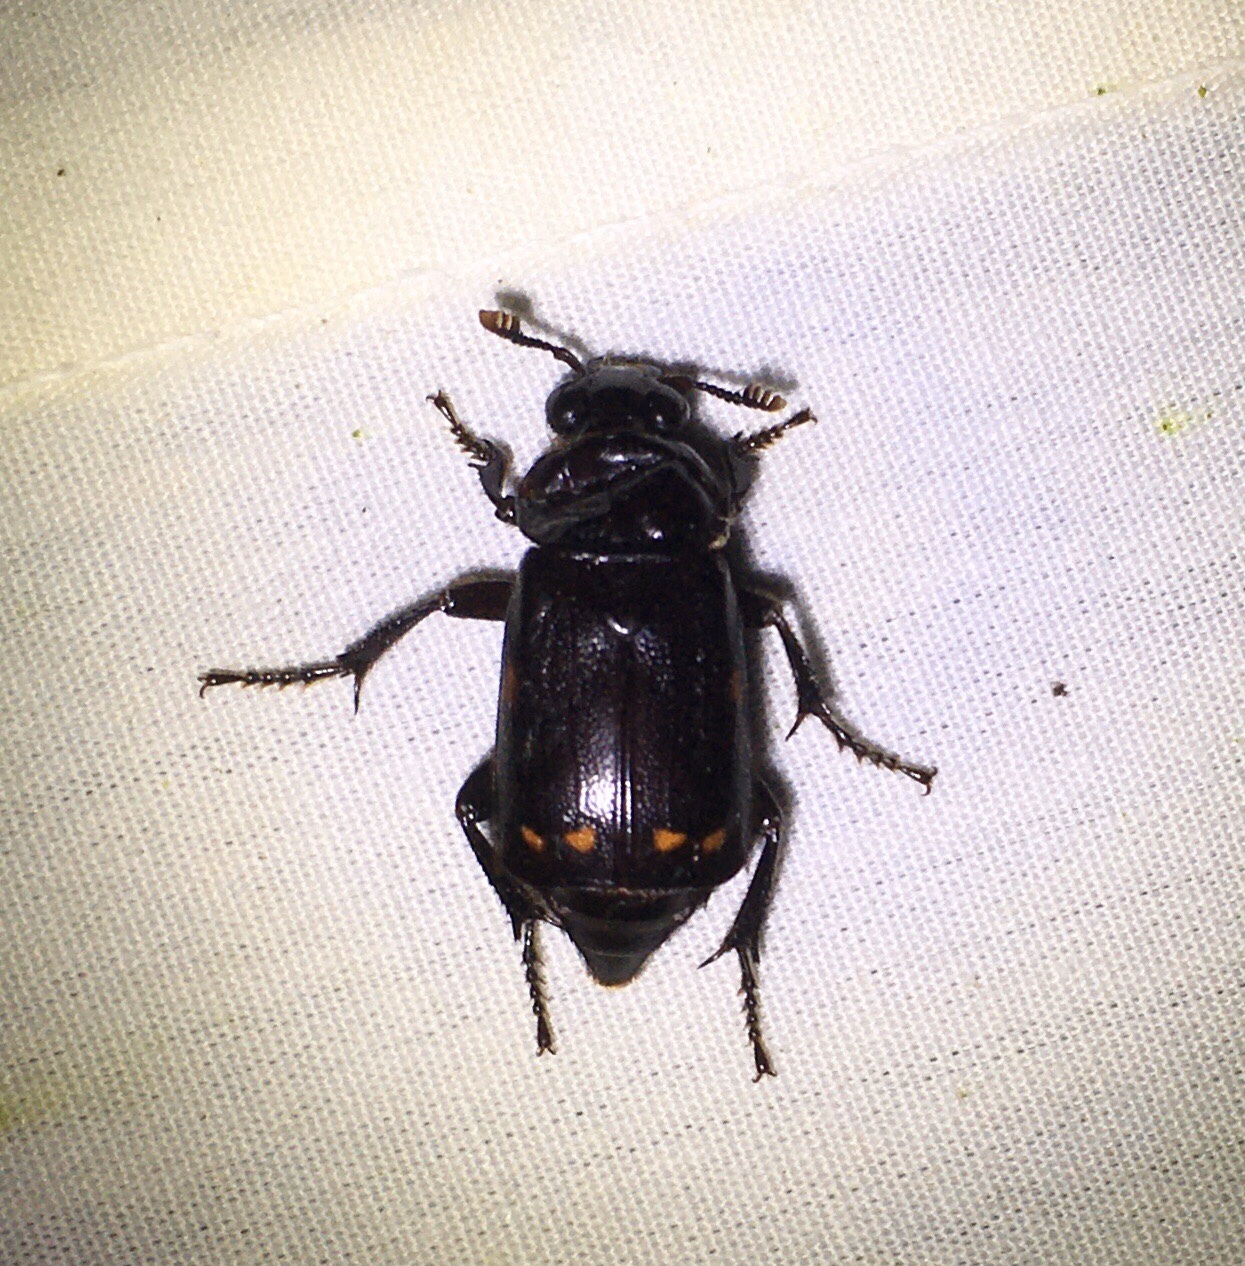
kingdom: Animalia
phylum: Arthropoda
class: Insecta
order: Coleoptera
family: Staphylinidae
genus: Nicrophorus
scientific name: Nicrophorus pustulatus
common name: Pustulated carrion beetle
